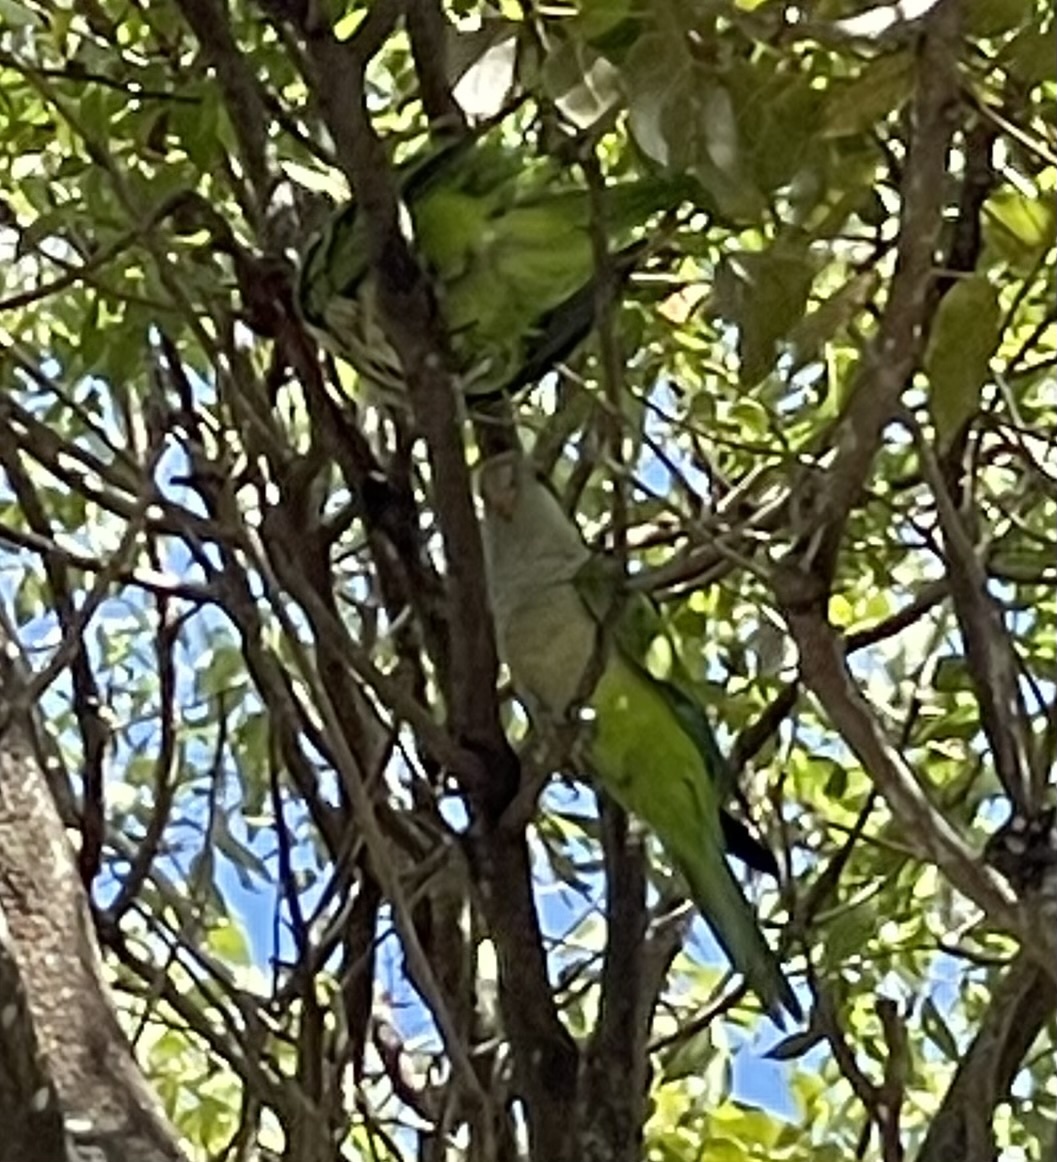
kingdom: Animalia
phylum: Chordata
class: Aves
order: Psittaciformes
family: Psittacidae
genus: Myiopsitta
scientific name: Myiopsitta monachus
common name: Monk parakeet
